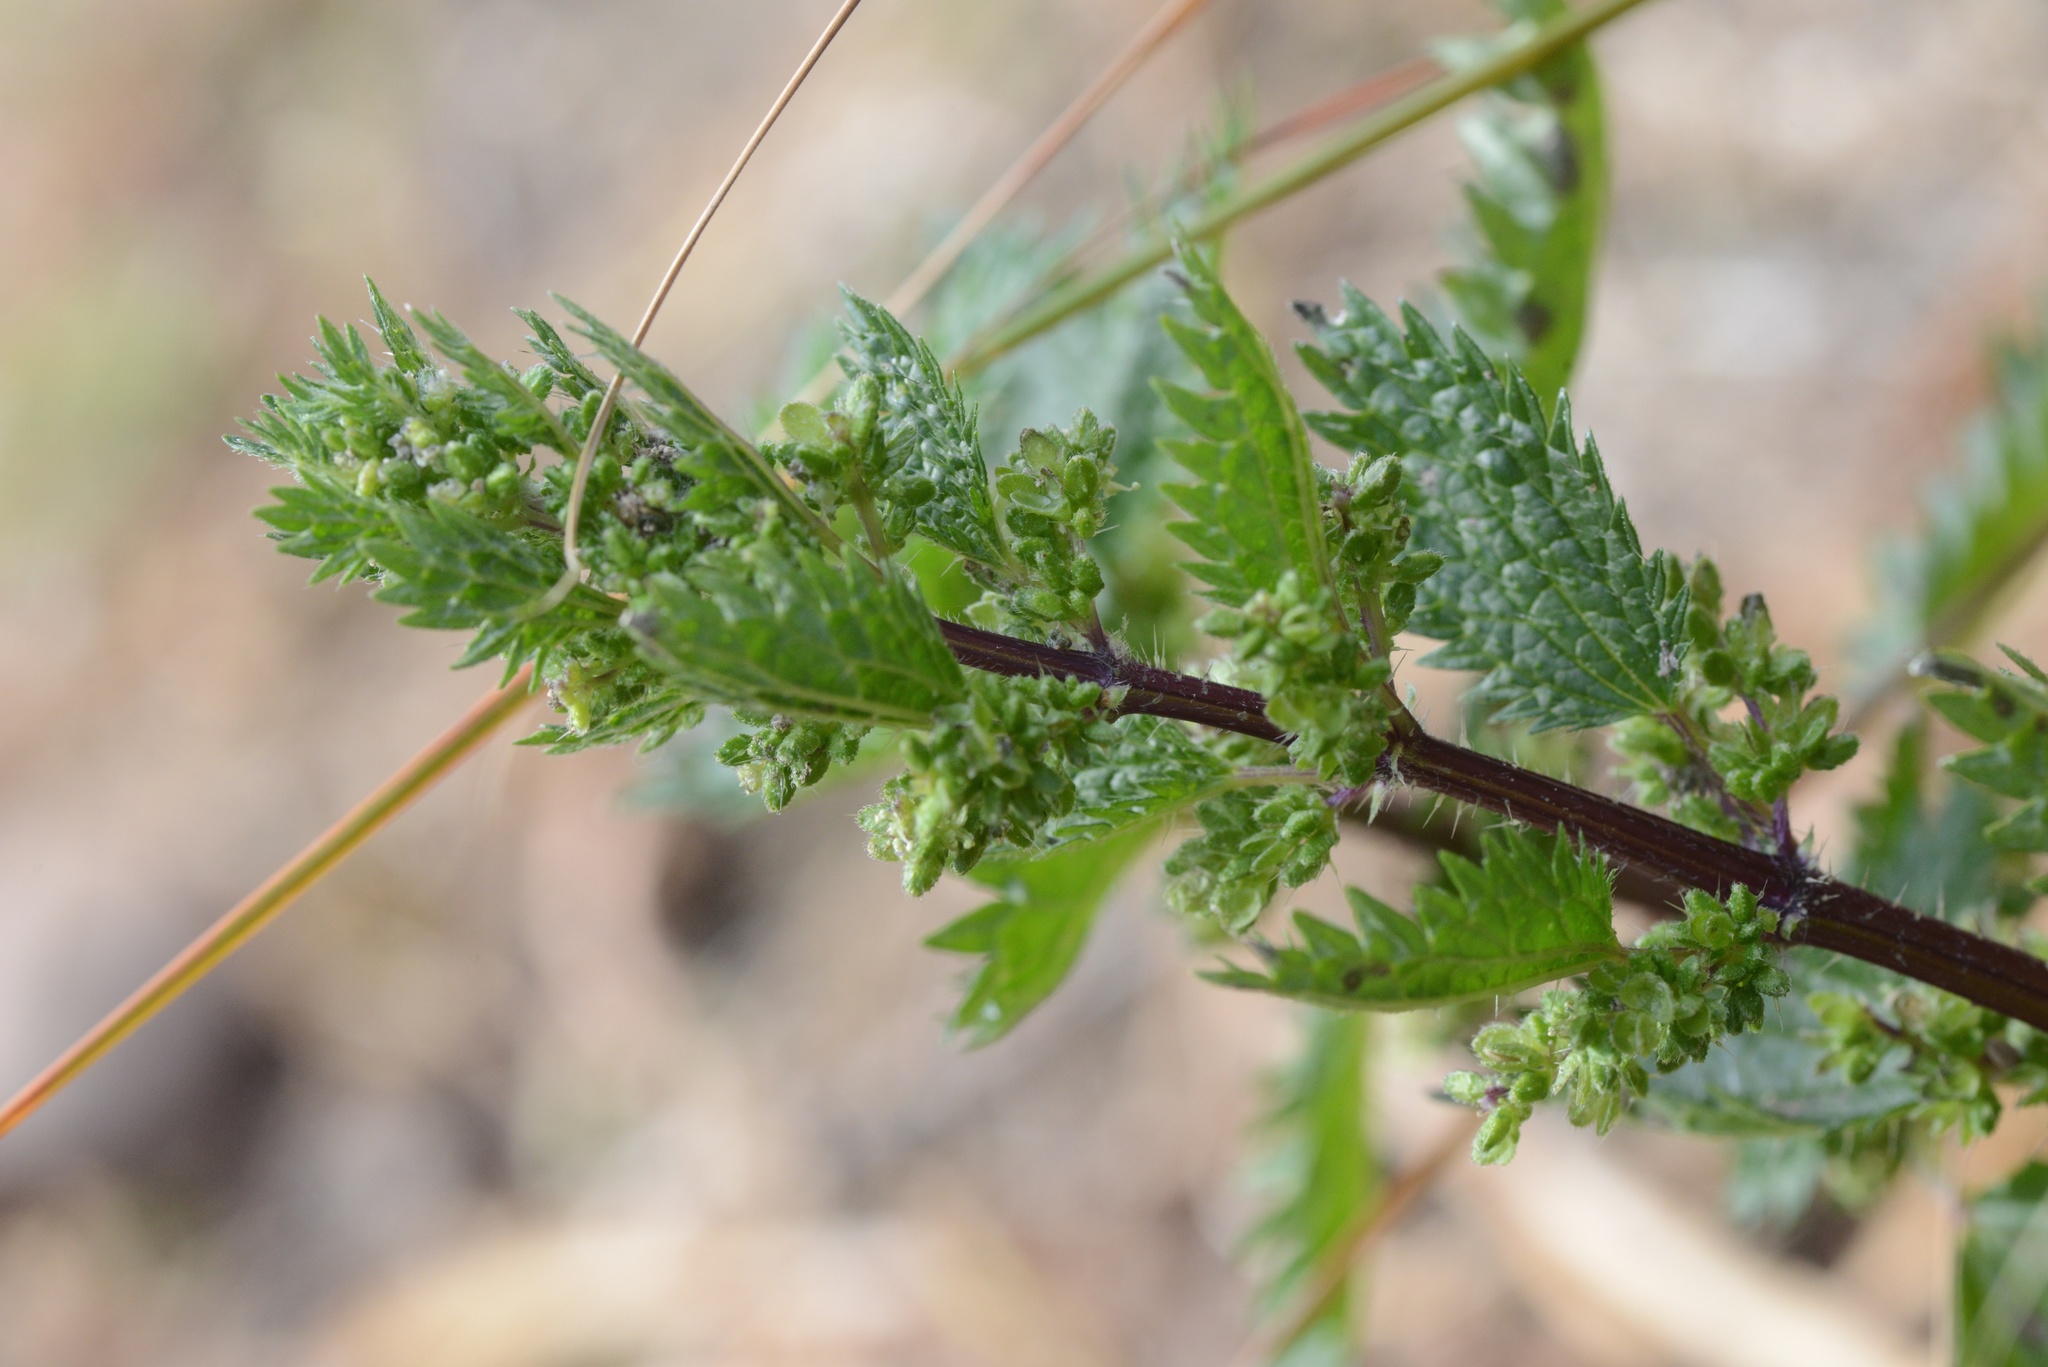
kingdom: Plantae
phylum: Tracheophyta
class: Magnoliopsida
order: Rosales
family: Urticaceae
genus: Urtica
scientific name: Urtica urens
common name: Dwarf nettle
